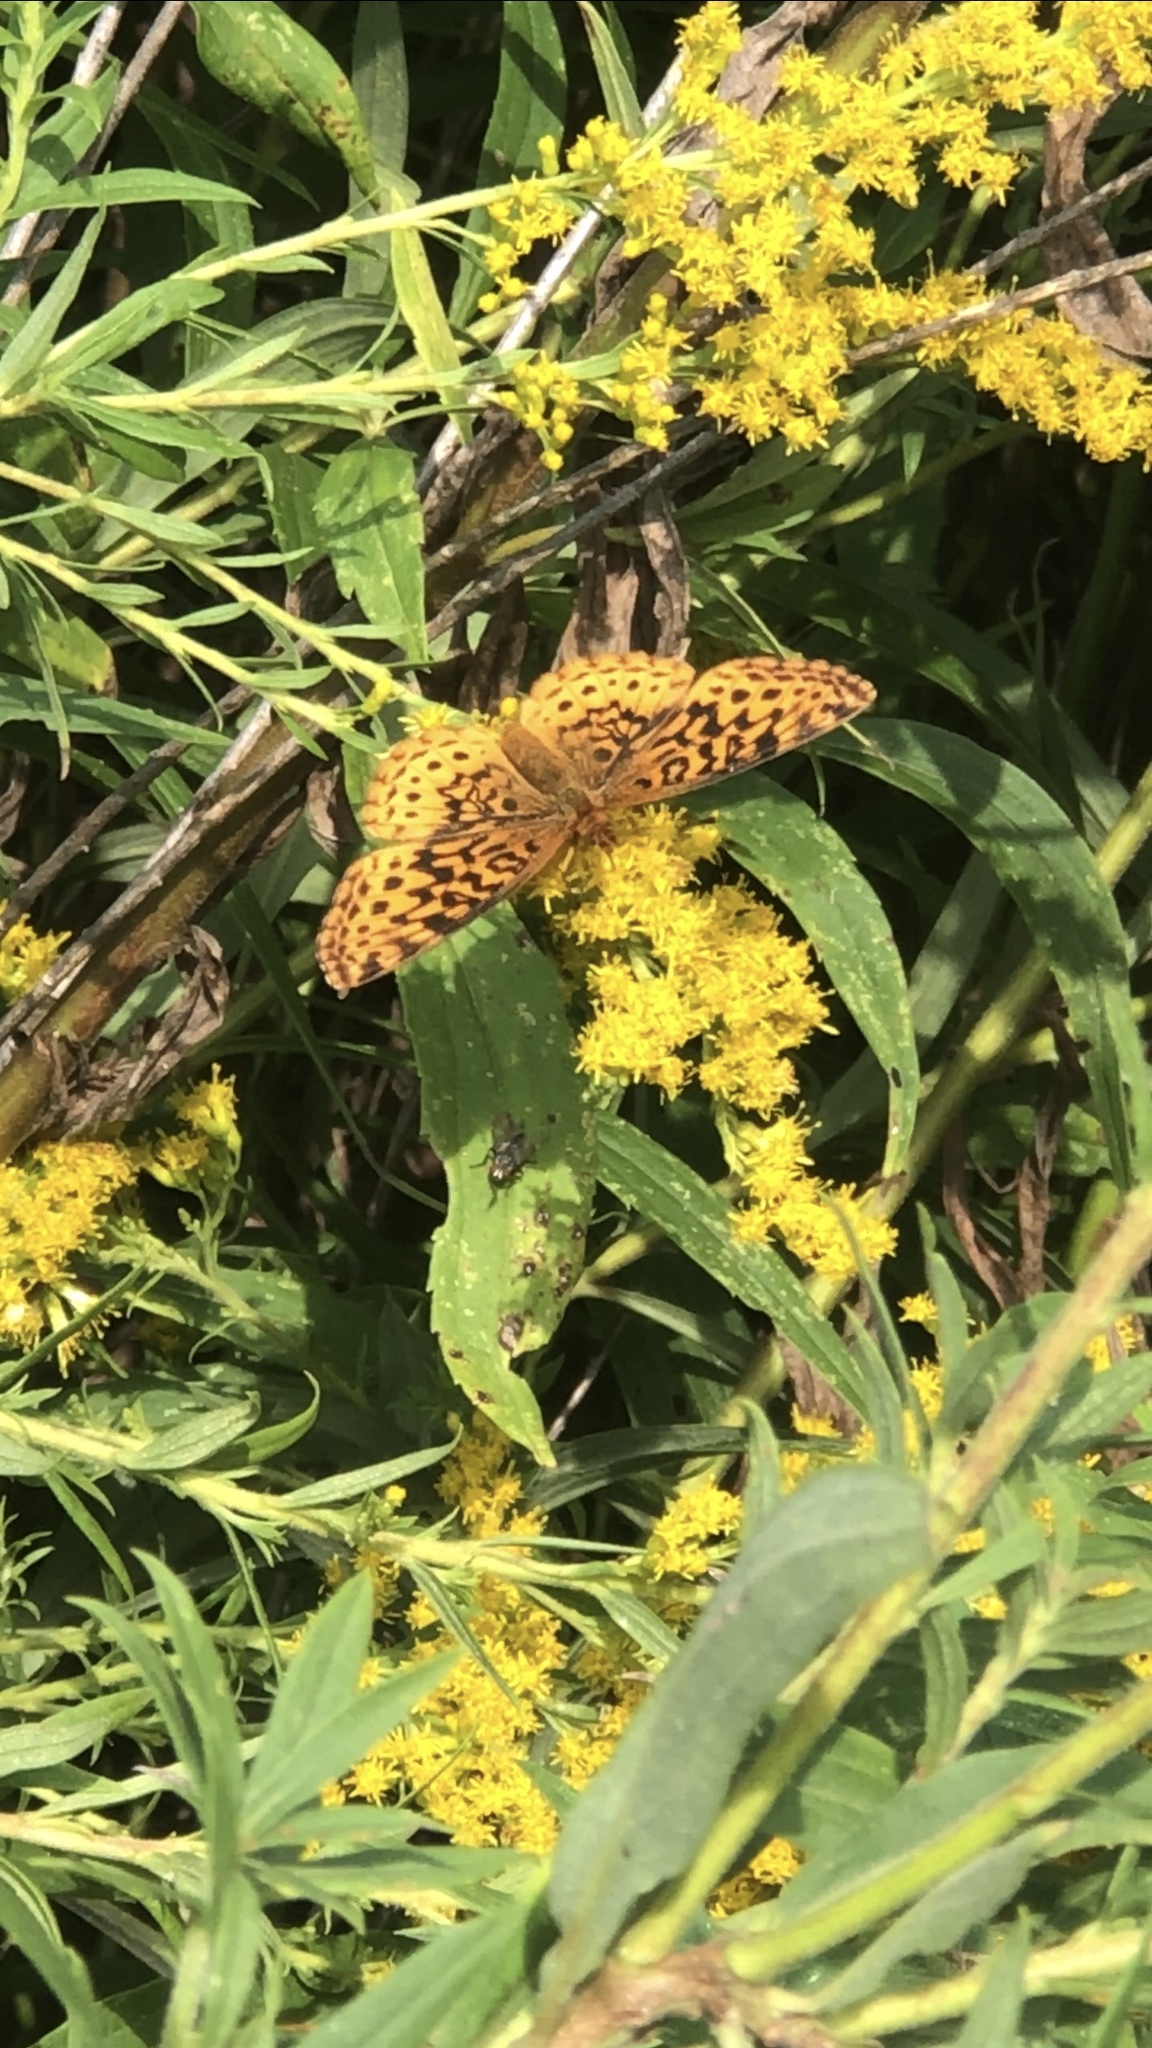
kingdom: Animalia
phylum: Arthropoda
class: Insecta
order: Lepidoptera
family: Nymphalidae
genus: Clossiana
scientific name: Clossiana toddi
